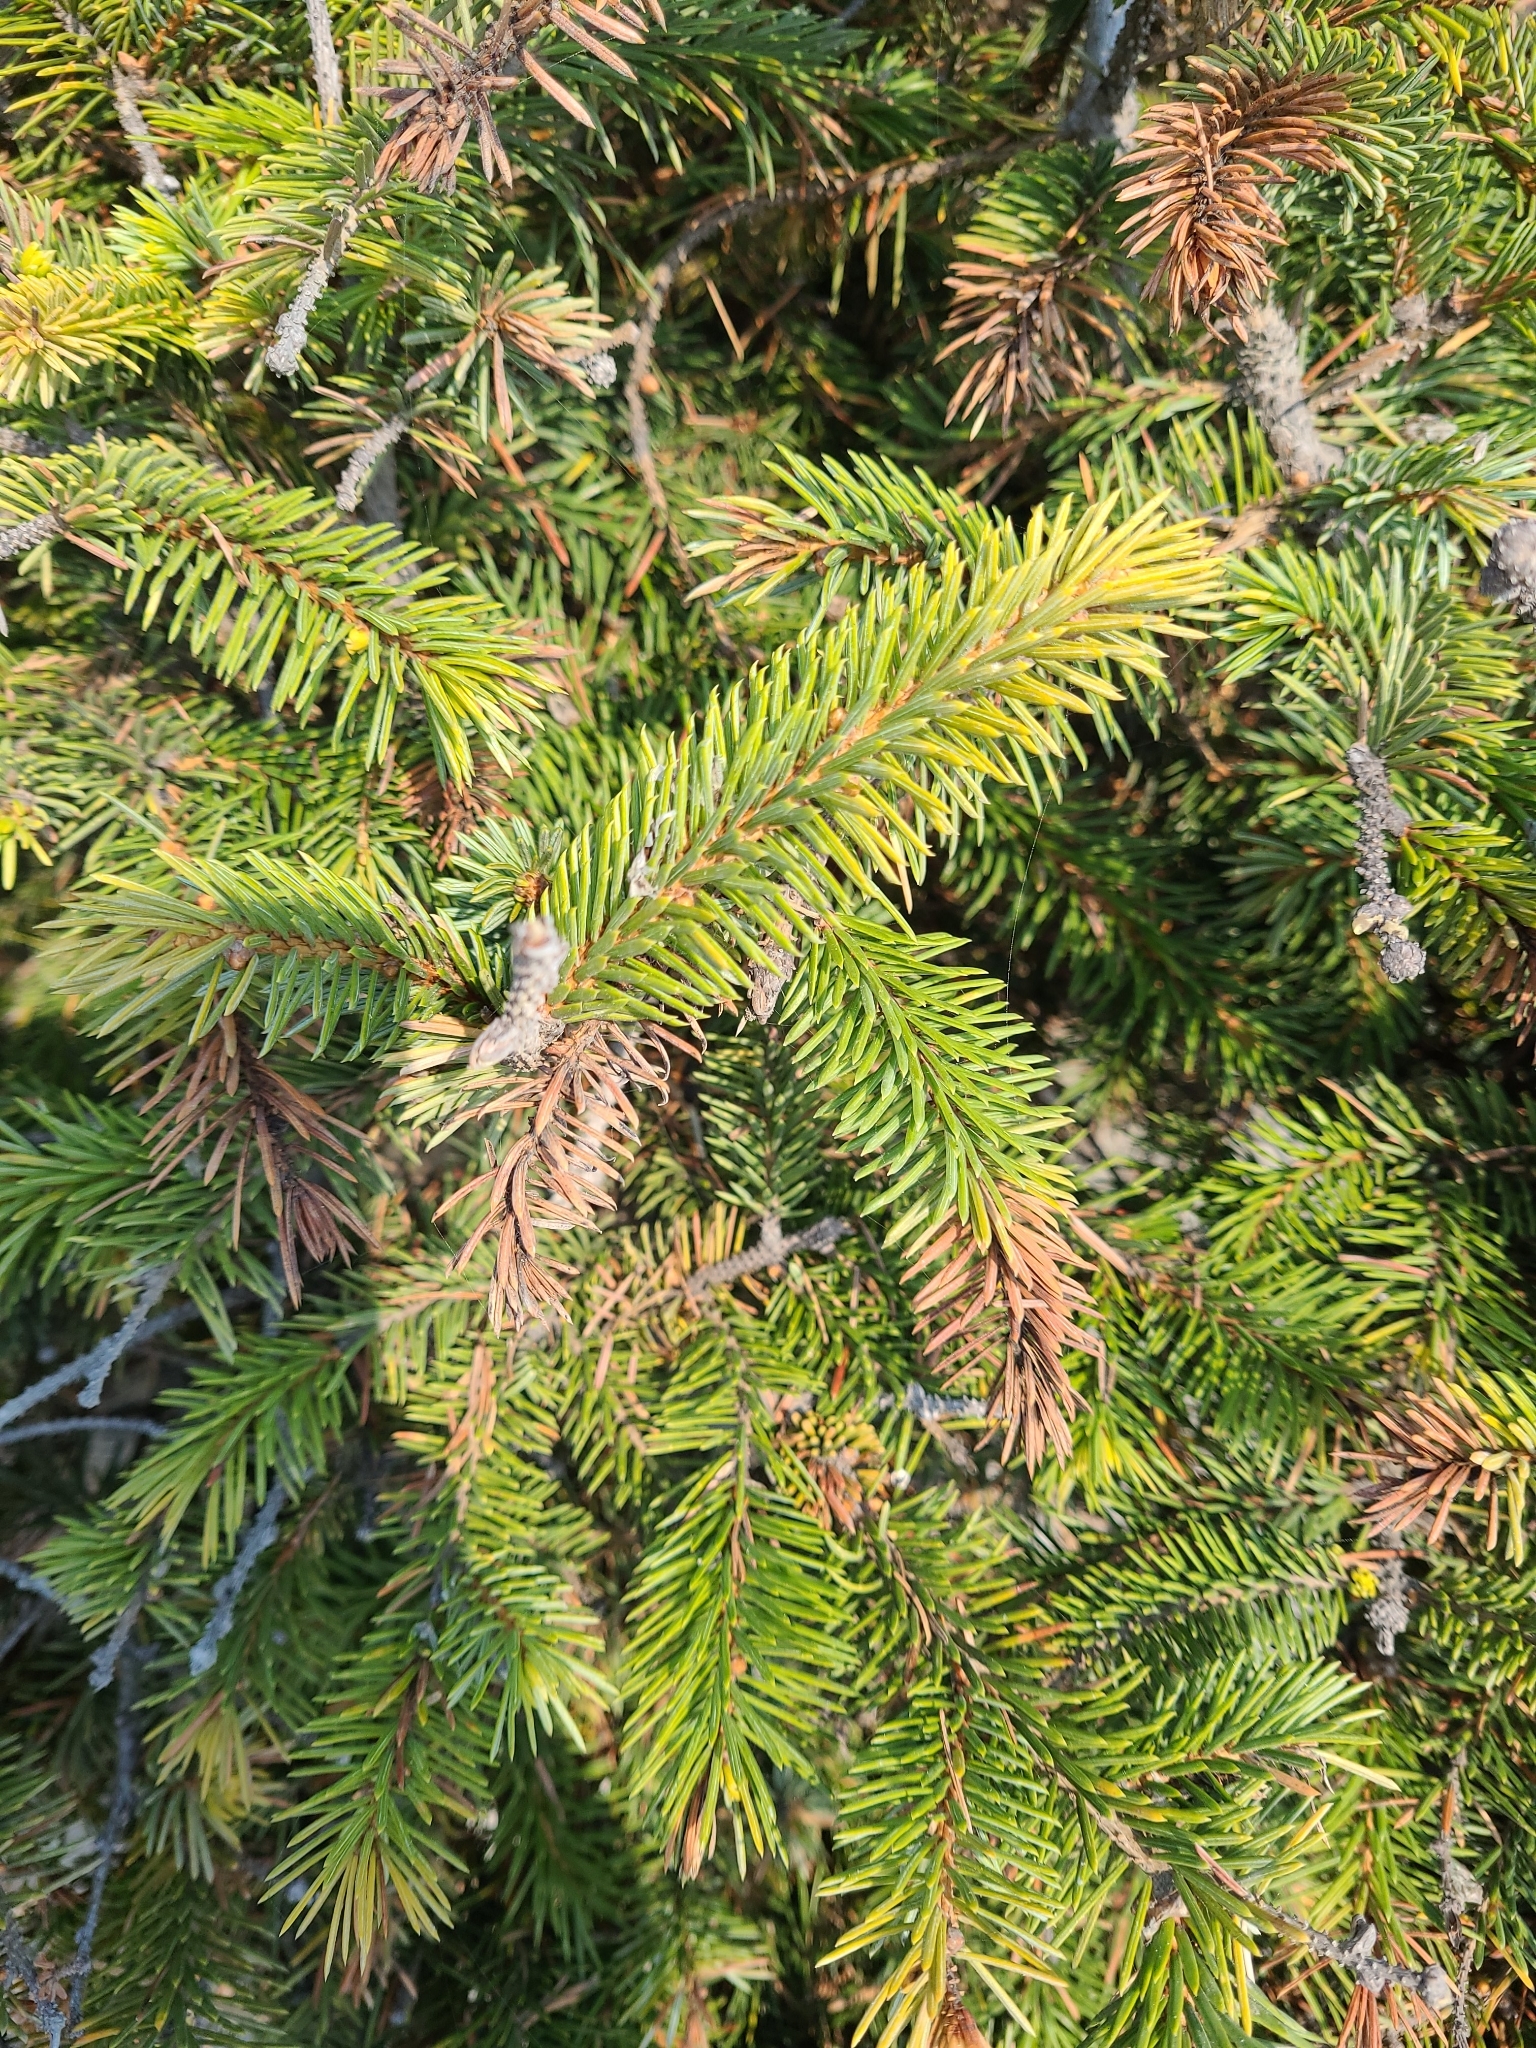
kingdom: Plantae
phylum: Tracheophyta
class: Pinopsida
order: Pinales
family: Pinaceae
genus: Picea
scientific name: Picea sitchensis
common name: Sitka spruce
